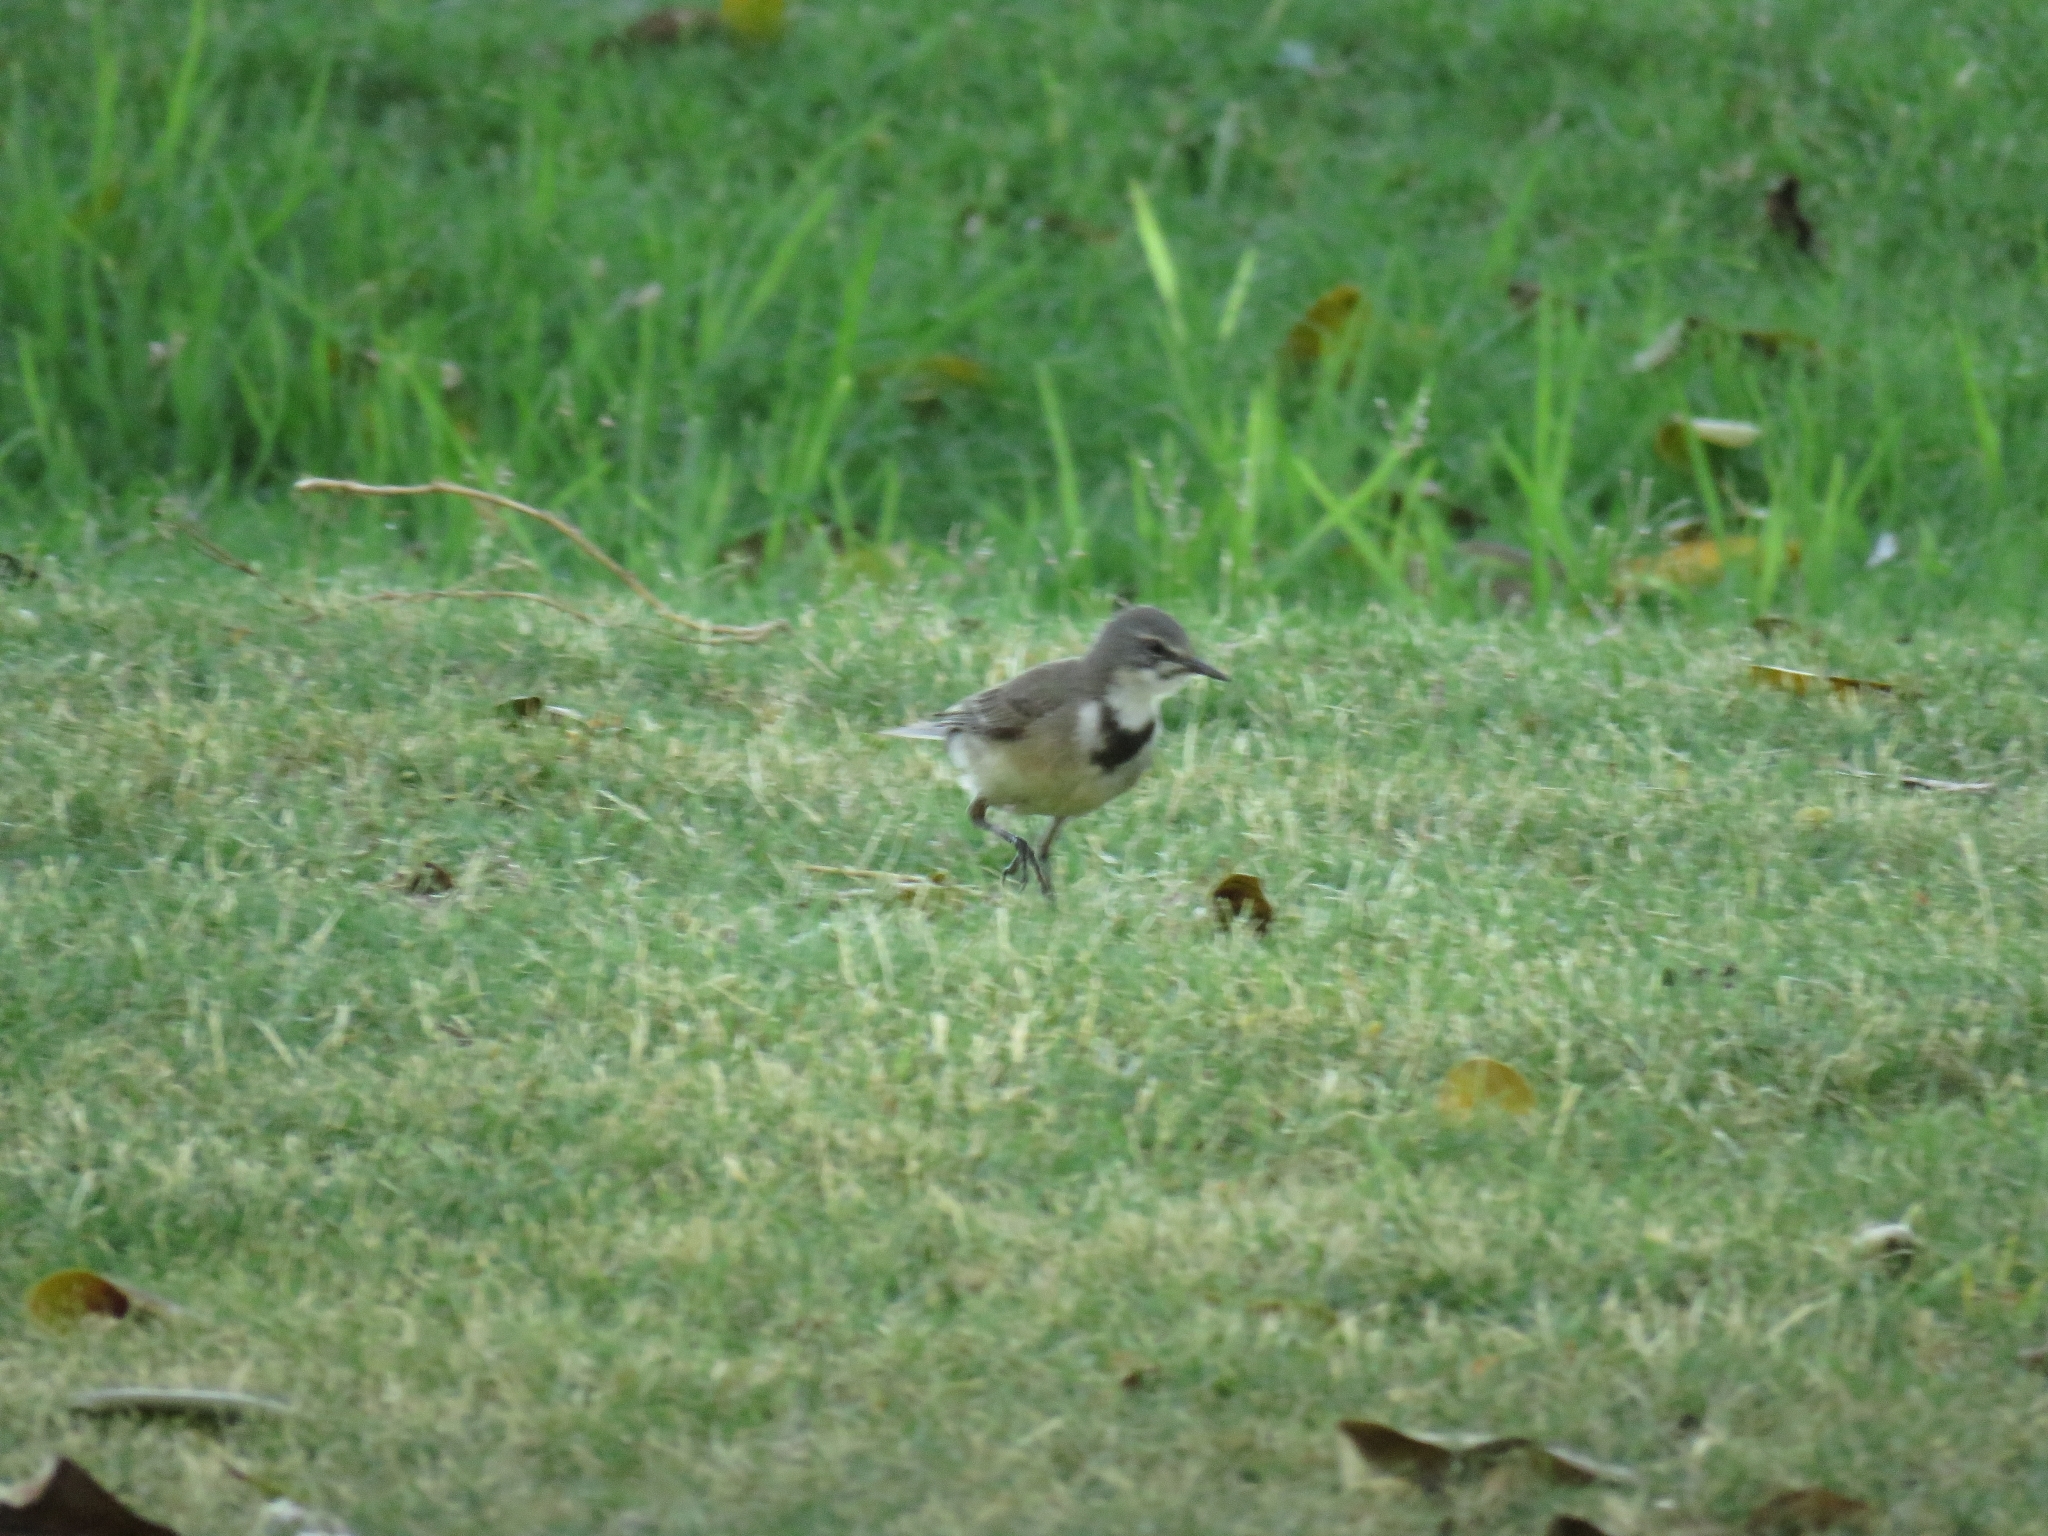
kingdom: Animalia
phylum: Chordata
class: Aves
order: Passeriformes
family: Motacillidae
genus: Motacilla
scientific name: Motacilla capensis
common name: Cape wagtail
